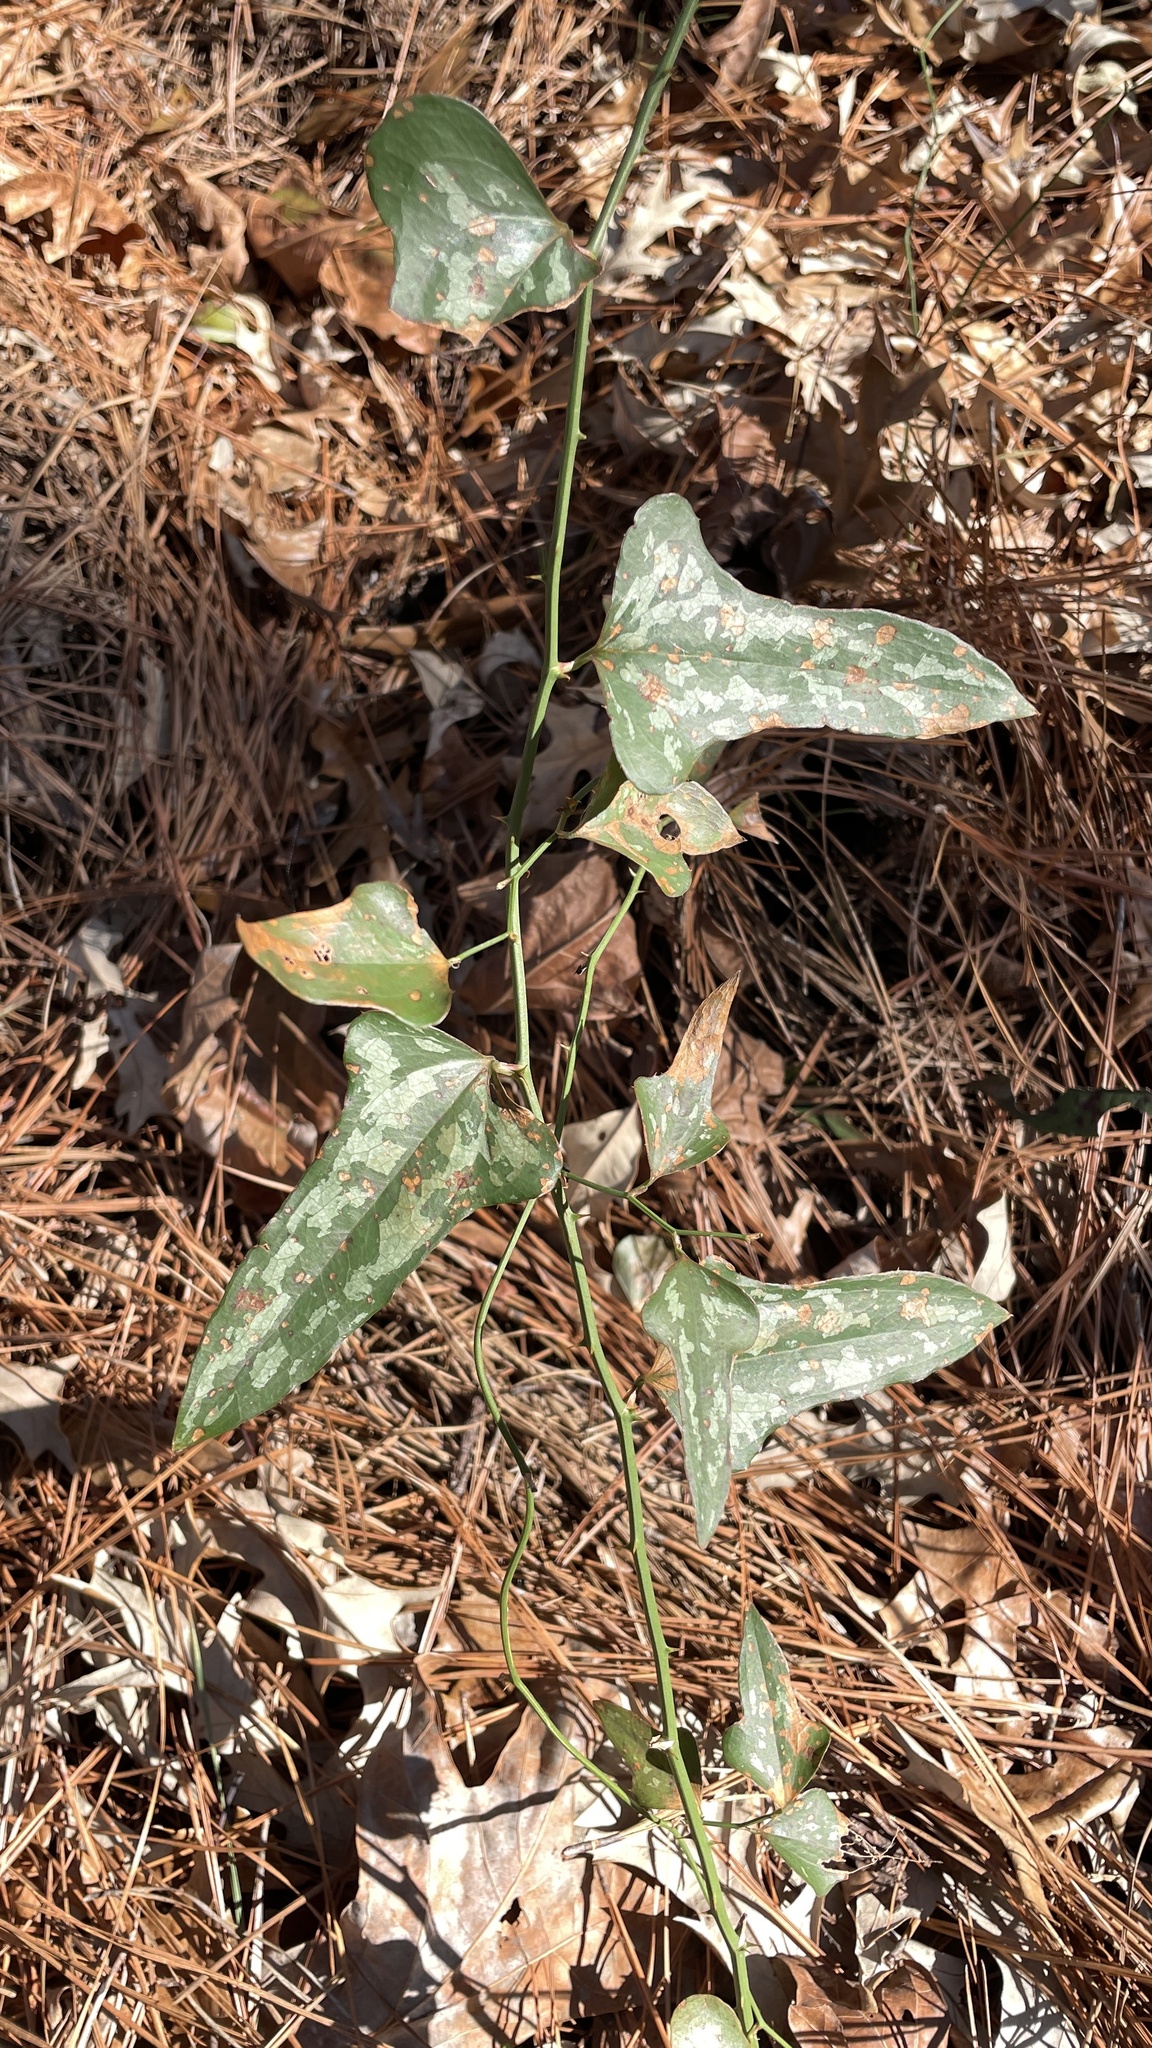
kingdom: Plantae
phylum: Tracheophyta
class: Liliopsida
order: Liliales
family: Smilacaceae
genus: Smilax
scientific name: Smilax bona-nox
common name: Catbrier
